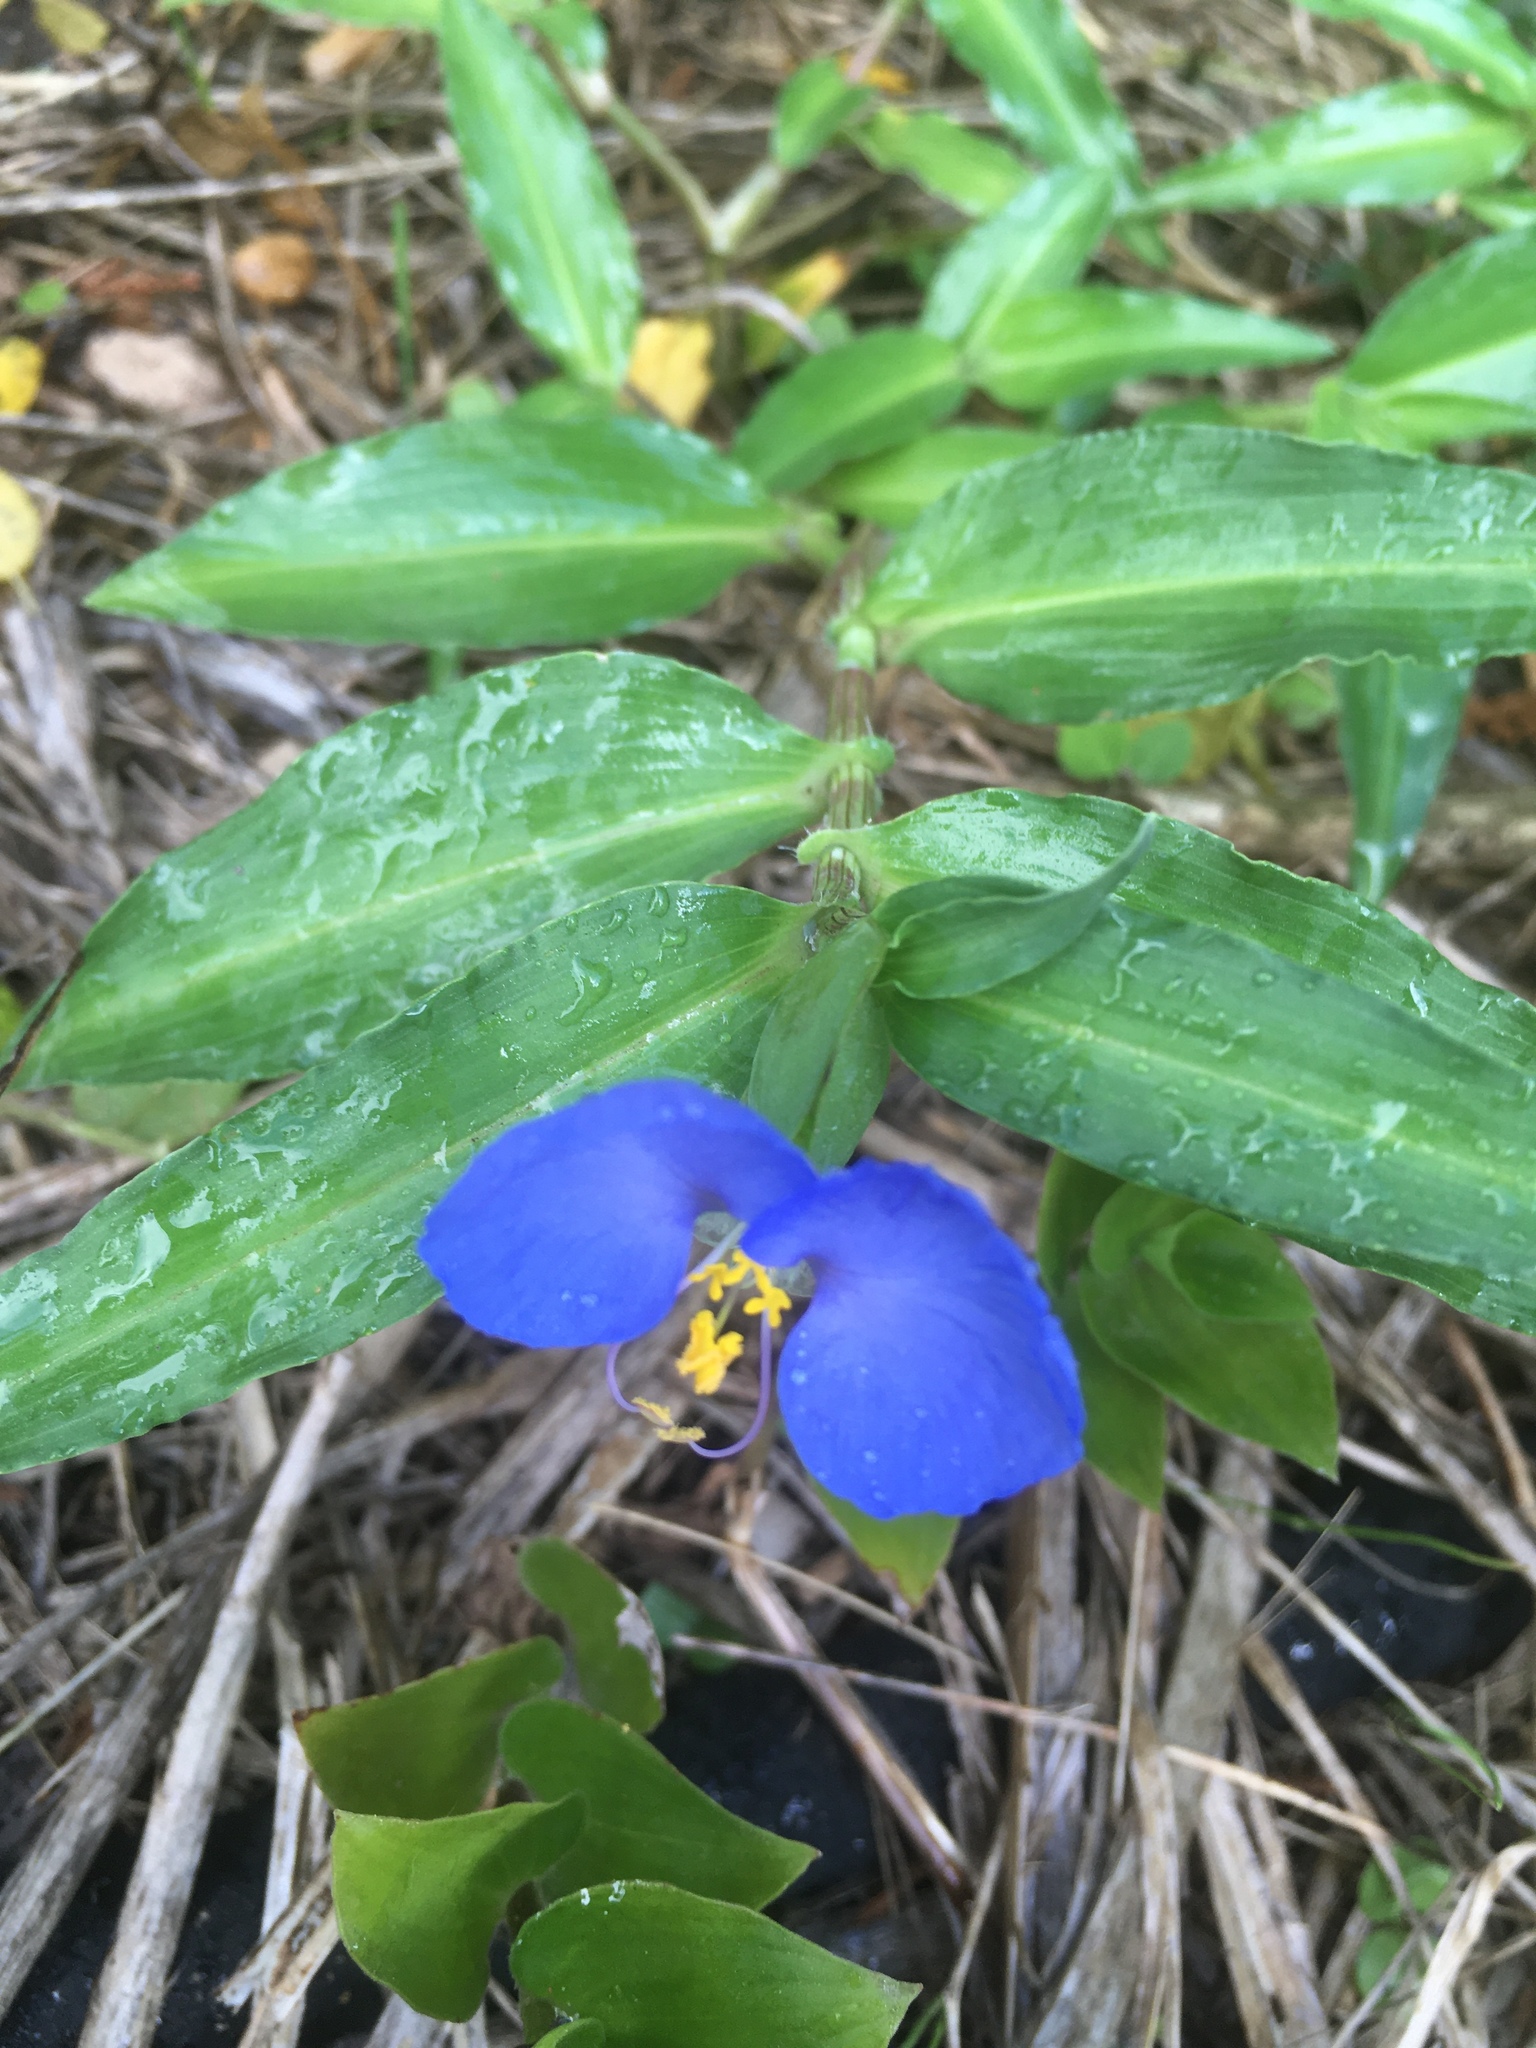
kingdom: Plantae
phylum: Tracheophyta
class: Liliopsida
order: Commelinales
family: Commelinaceae
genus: Commelina
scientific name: Commelina erecta
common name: Blousel blommetjie
